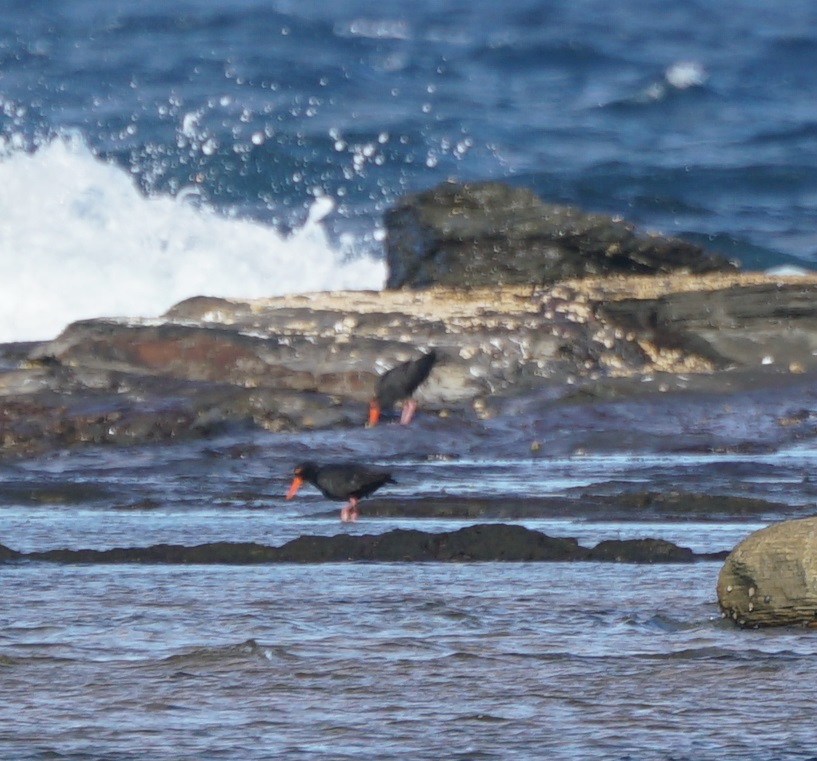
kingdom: Animalia
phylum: Chordata
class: Aves
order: Charadriiformes
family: Haematopodidae
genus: Haematopus
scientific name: Haematopus fuliginosus
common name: Sooty oystercatcher
